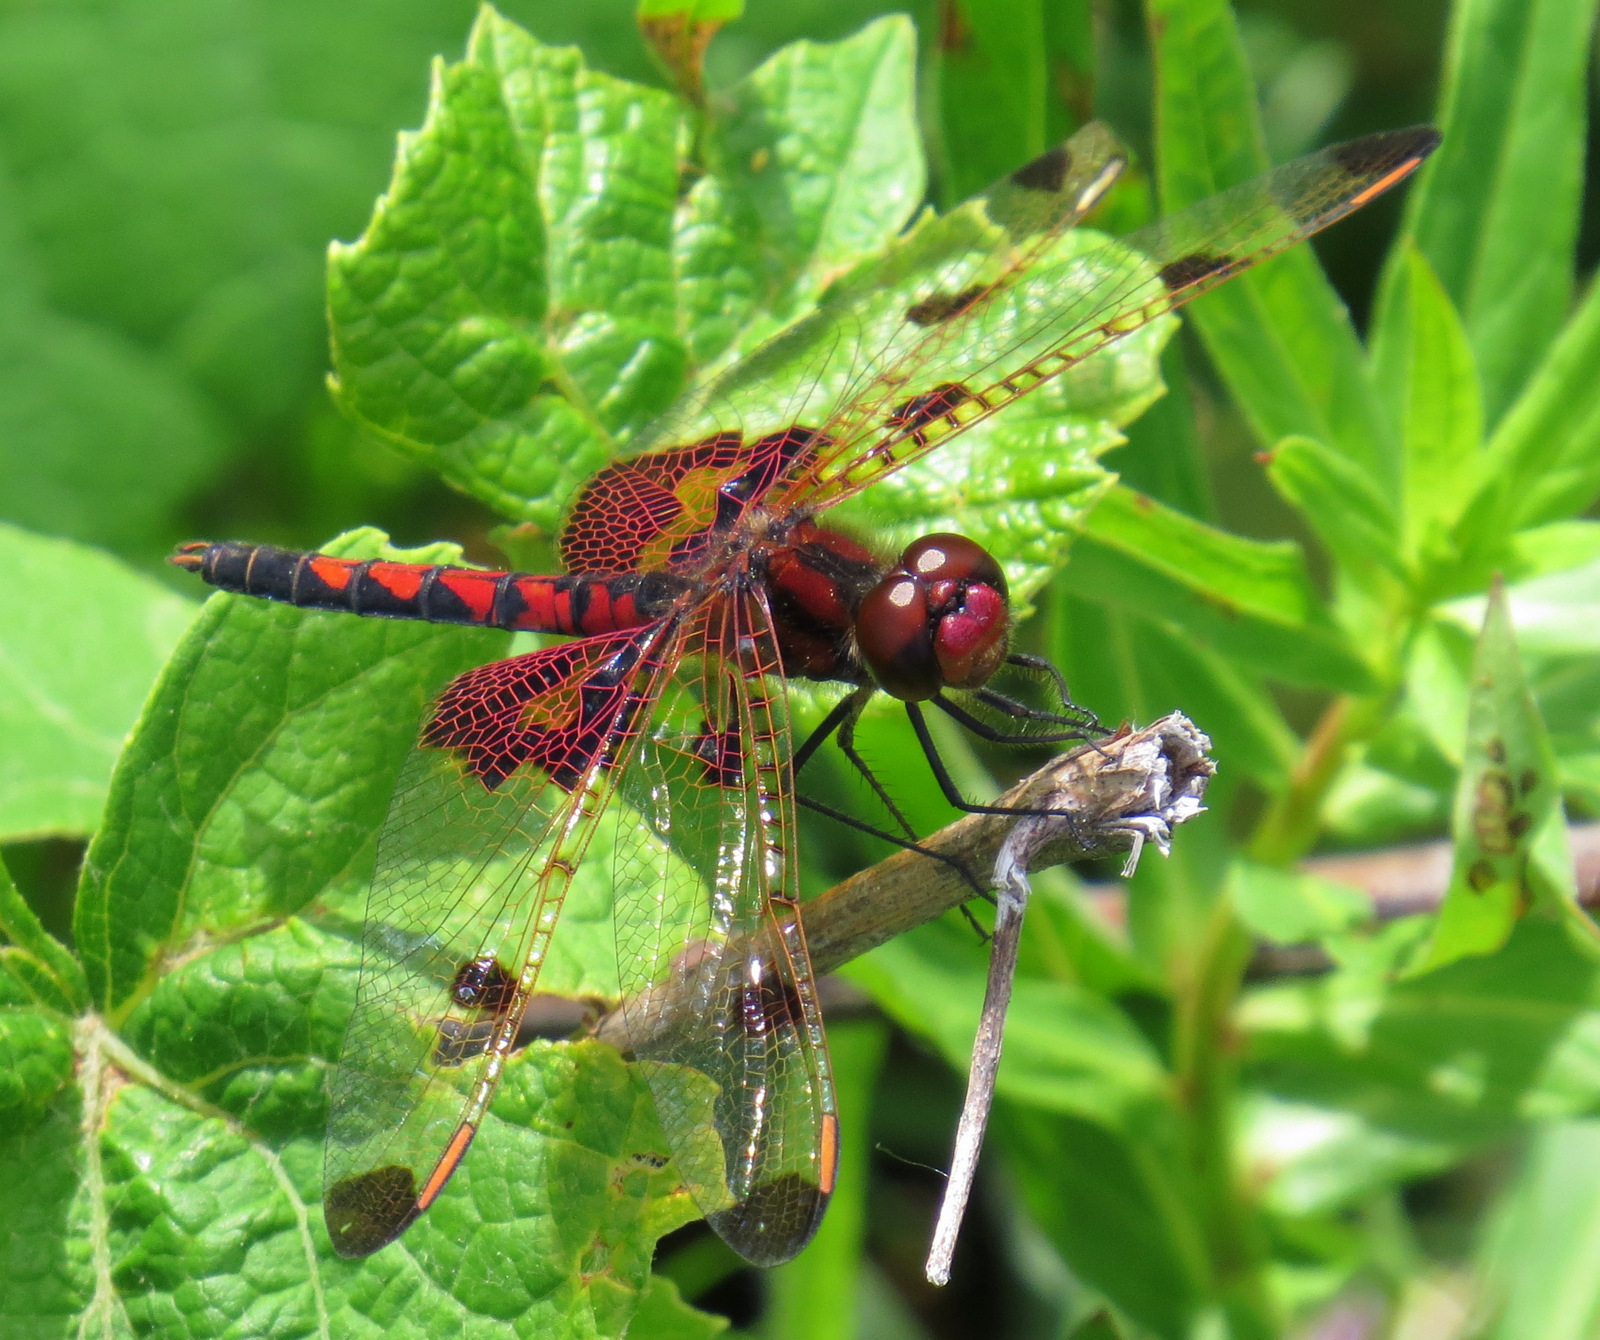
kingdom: Animalia
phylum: Arthropoda
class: Insecta
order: Odonata
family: Libellulidae
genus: Celithemis
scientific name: Celithemis elisa
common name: Calico pennant
